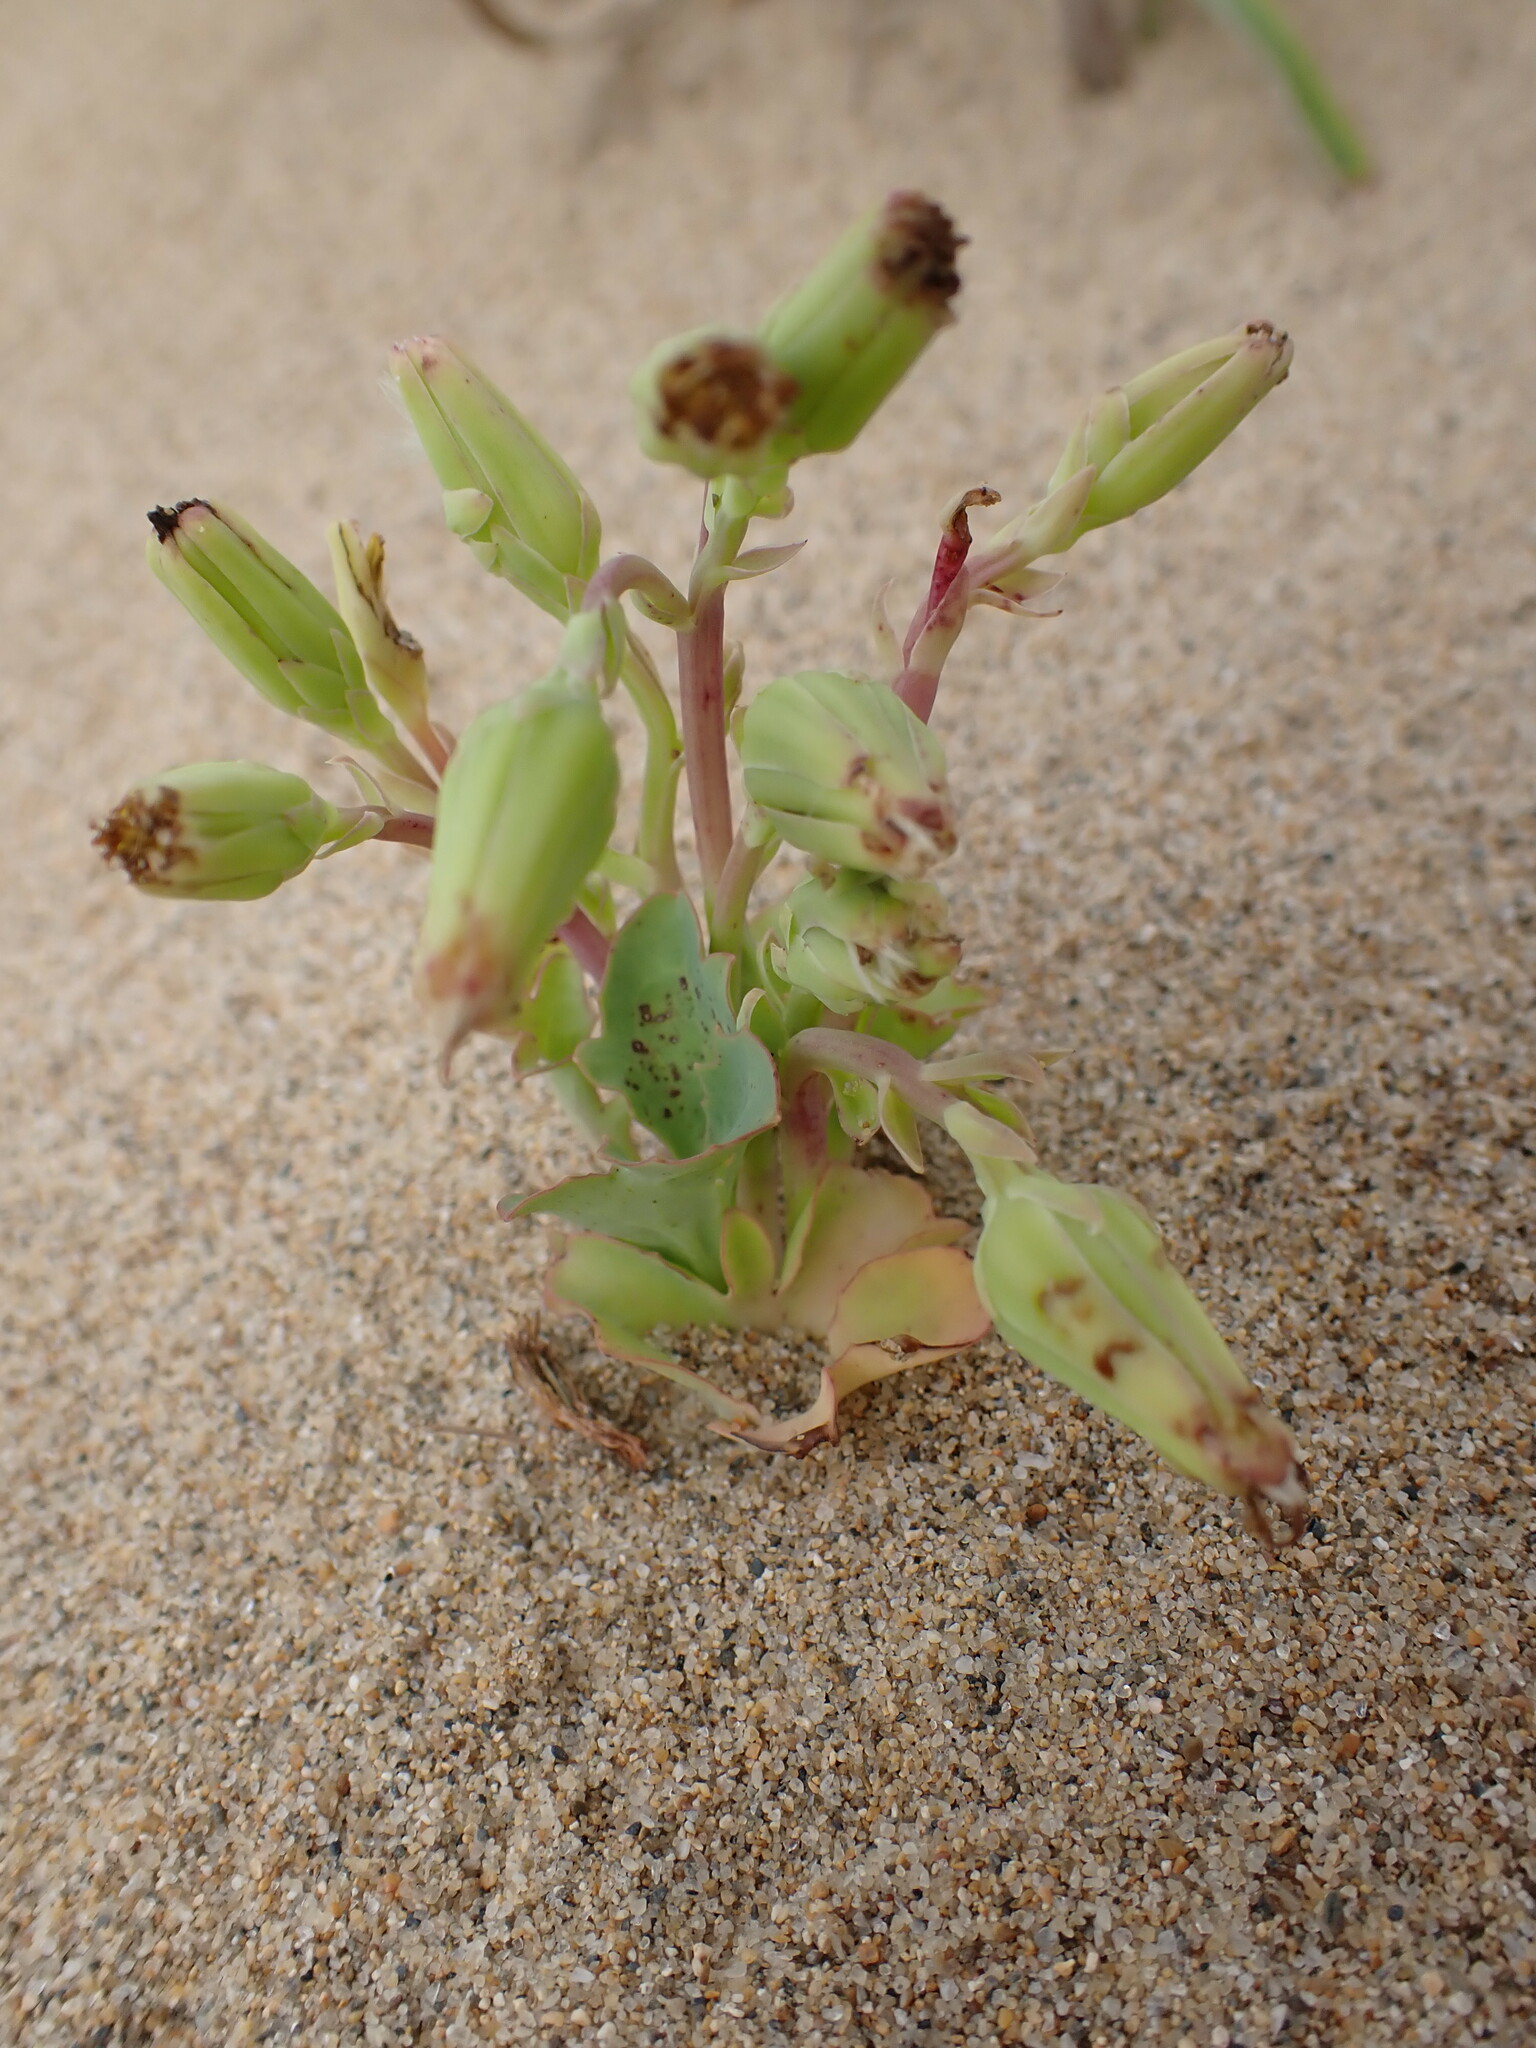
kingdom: Plantae
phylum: Tracheophyta
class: Magnoliopsida
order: Asterales
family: Asteraceae
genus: Ixeris
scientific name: Ixeris repens
